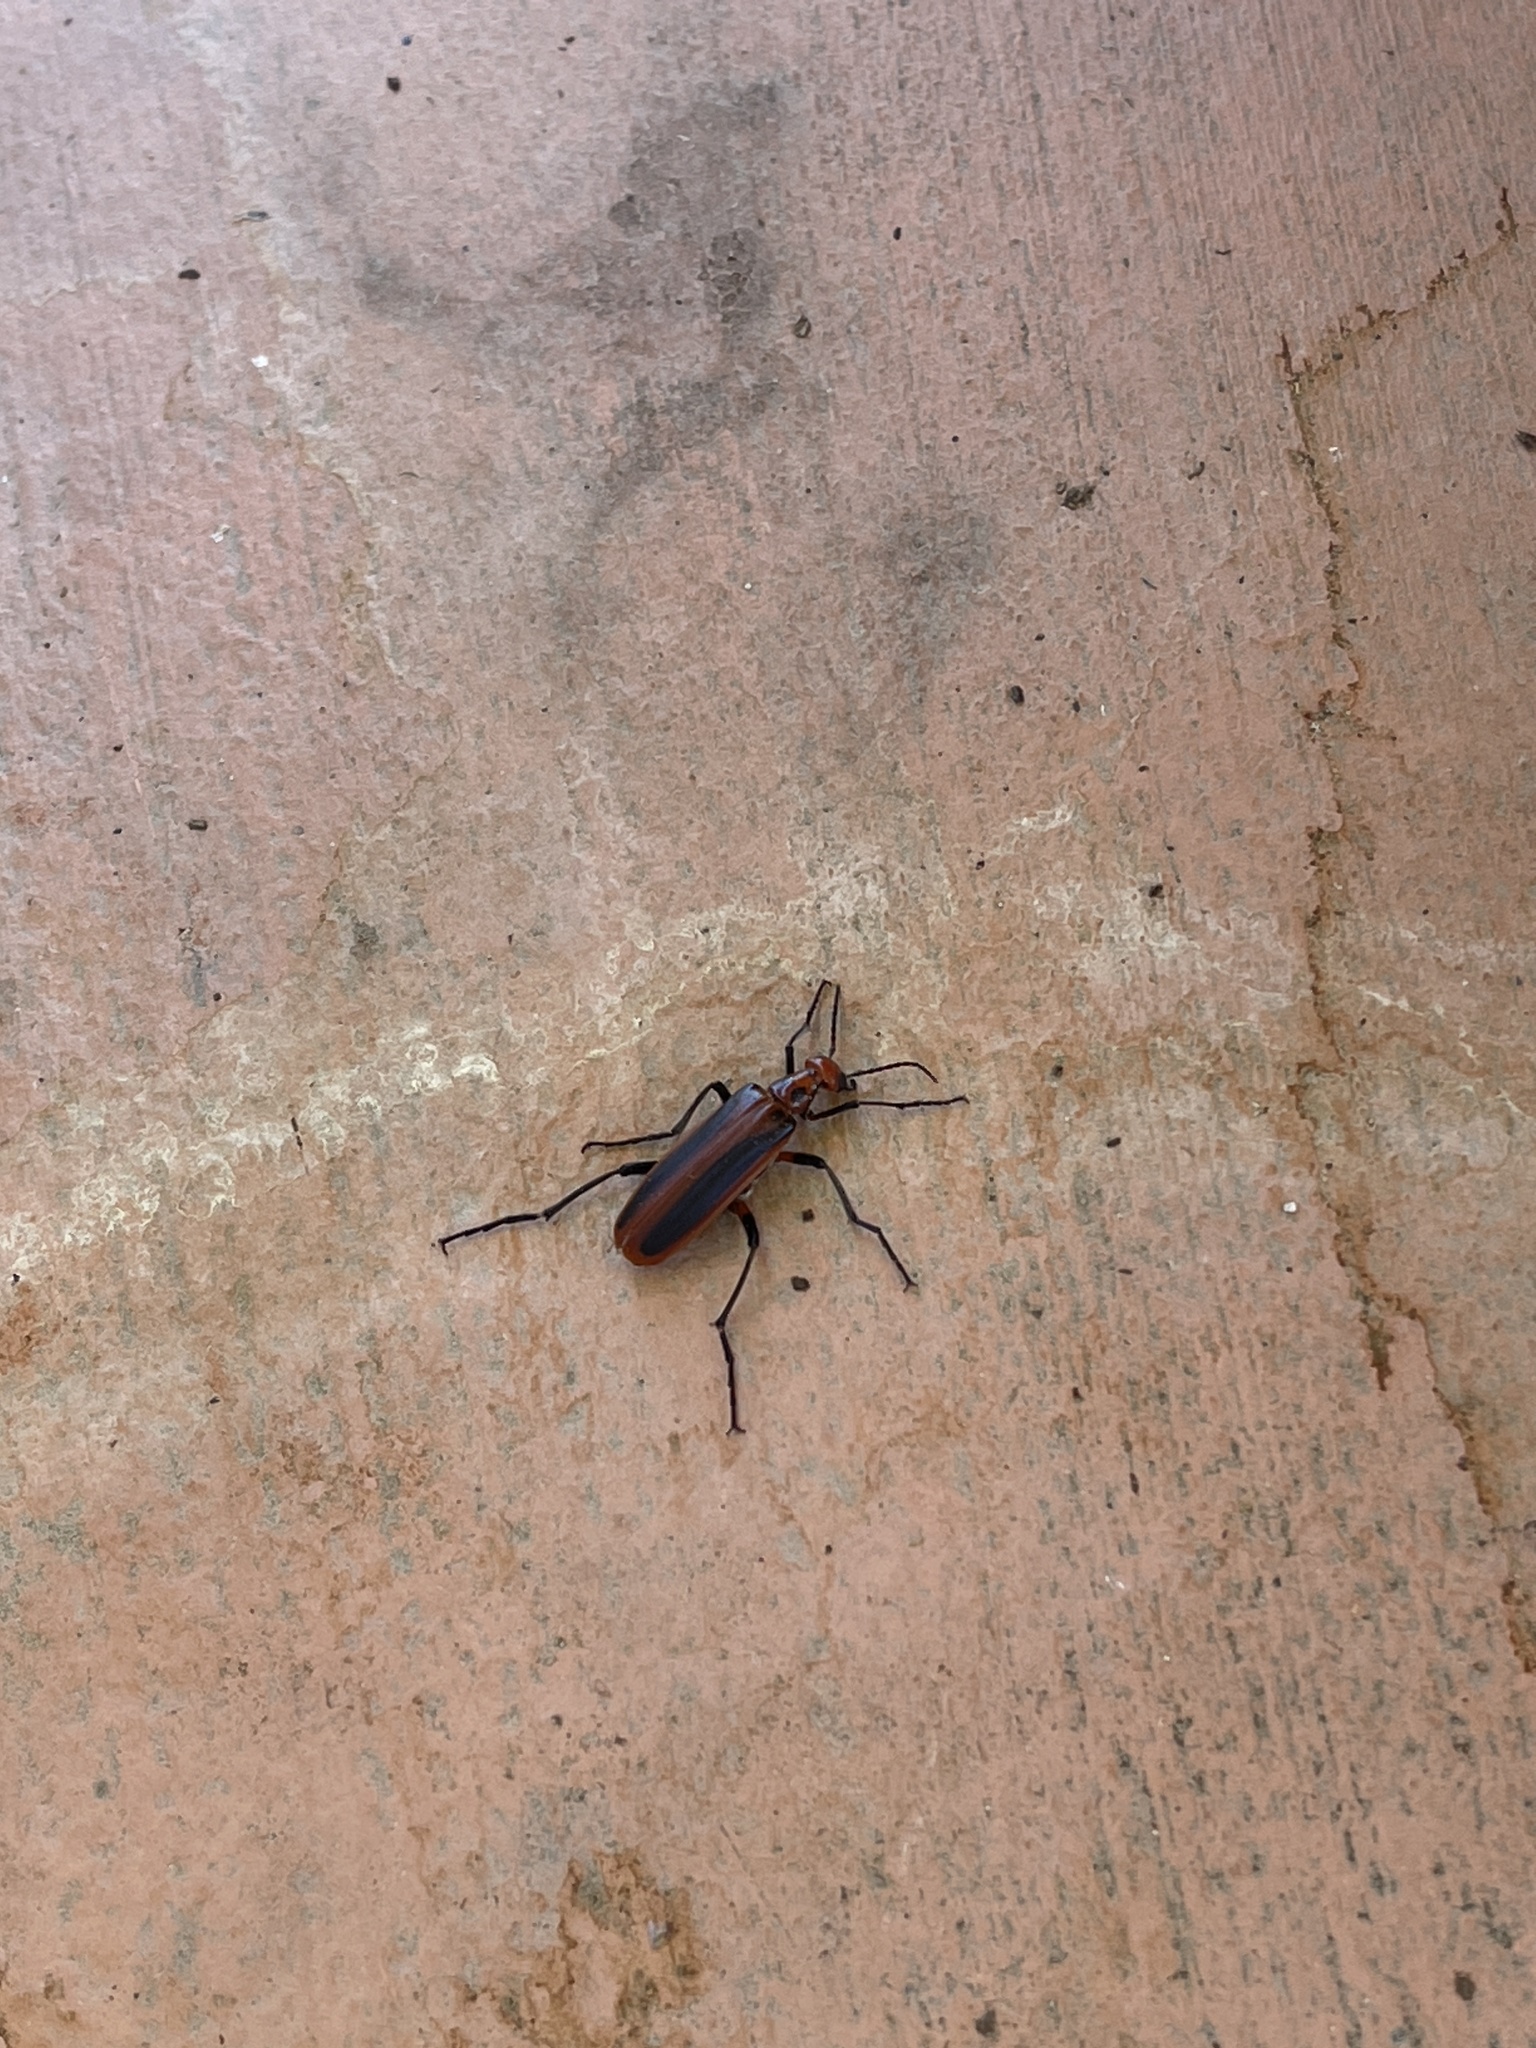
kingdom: Animalia
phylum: Arthropoda
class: Insecta
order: Coleoptera
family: Meloidae
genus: Pyrota
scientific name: Pyrota tenuicostatis
